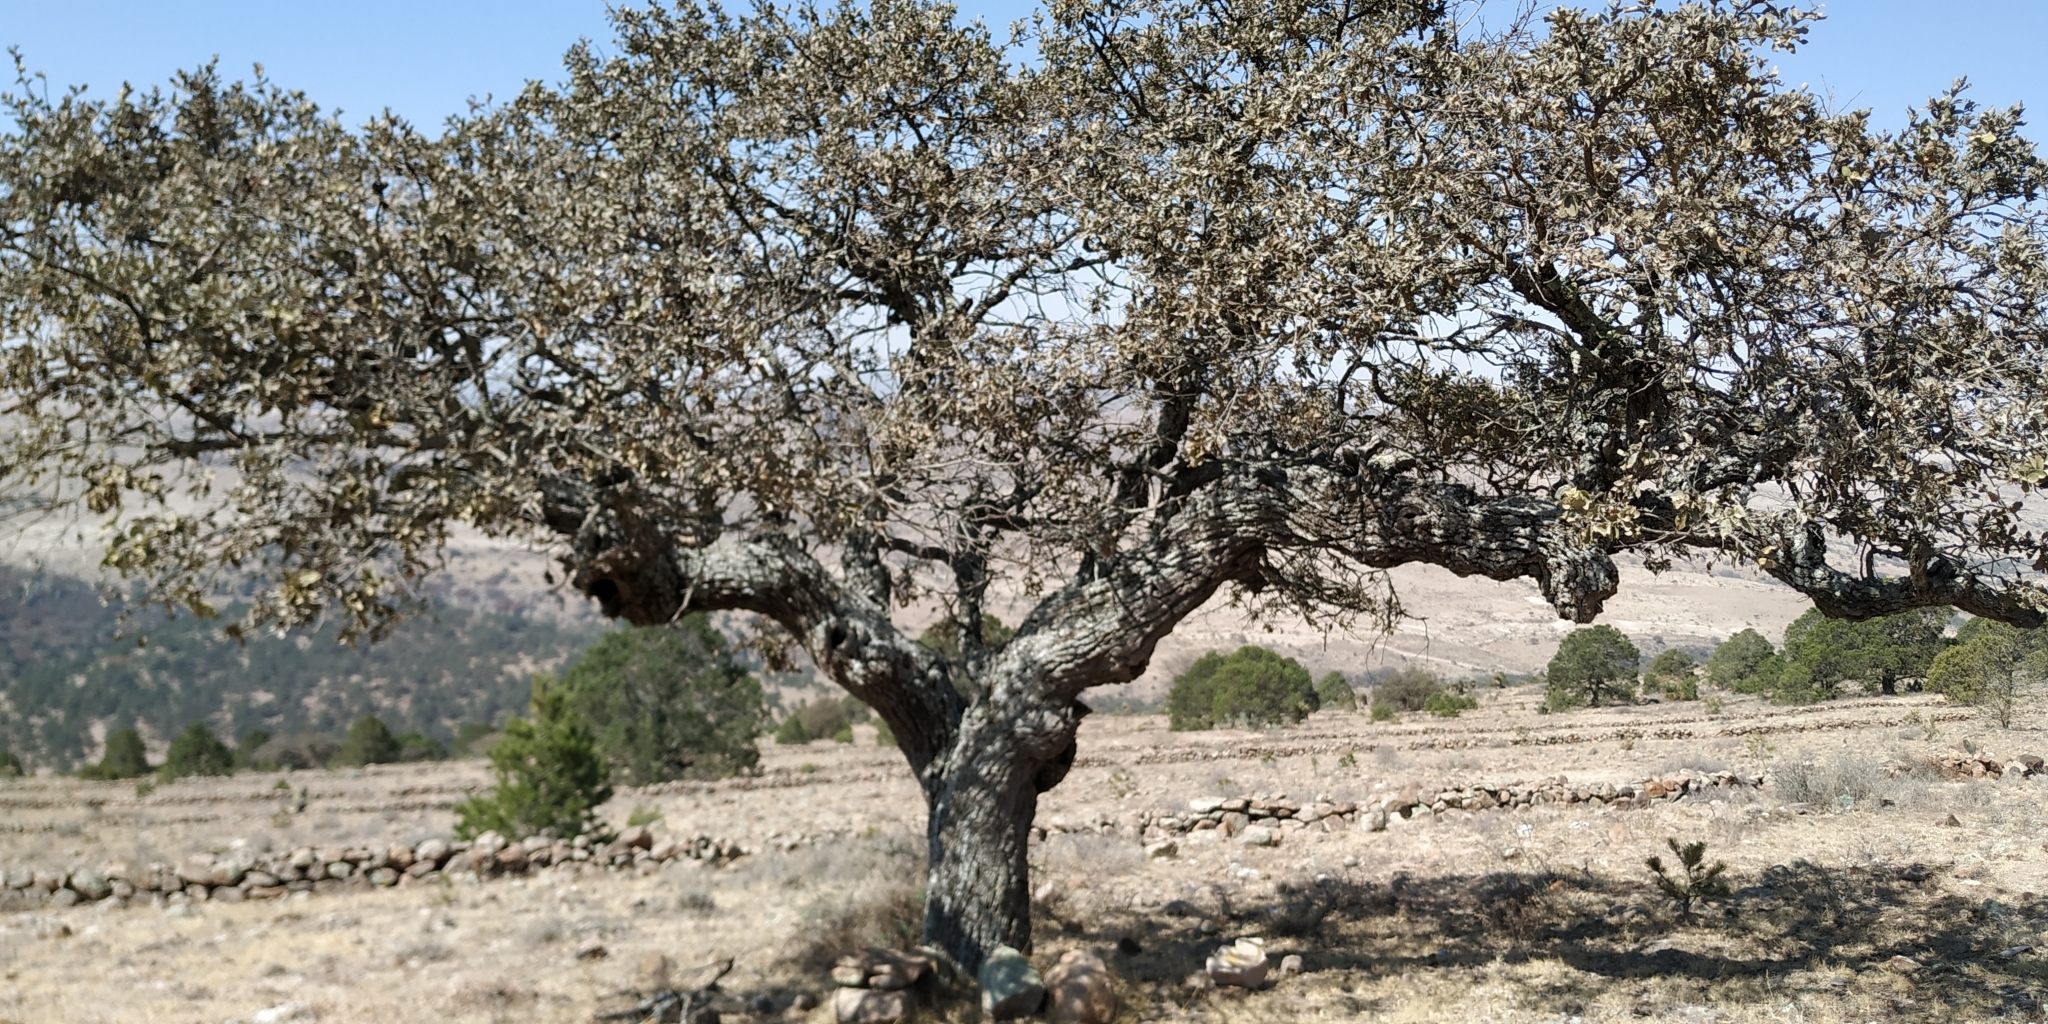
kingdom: Plantae
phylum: Tracheophyta
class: Magnoliopsida
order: Fagales
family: Fagaceae
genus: Quercus
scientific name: Quercus grisea
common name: Gray oak
